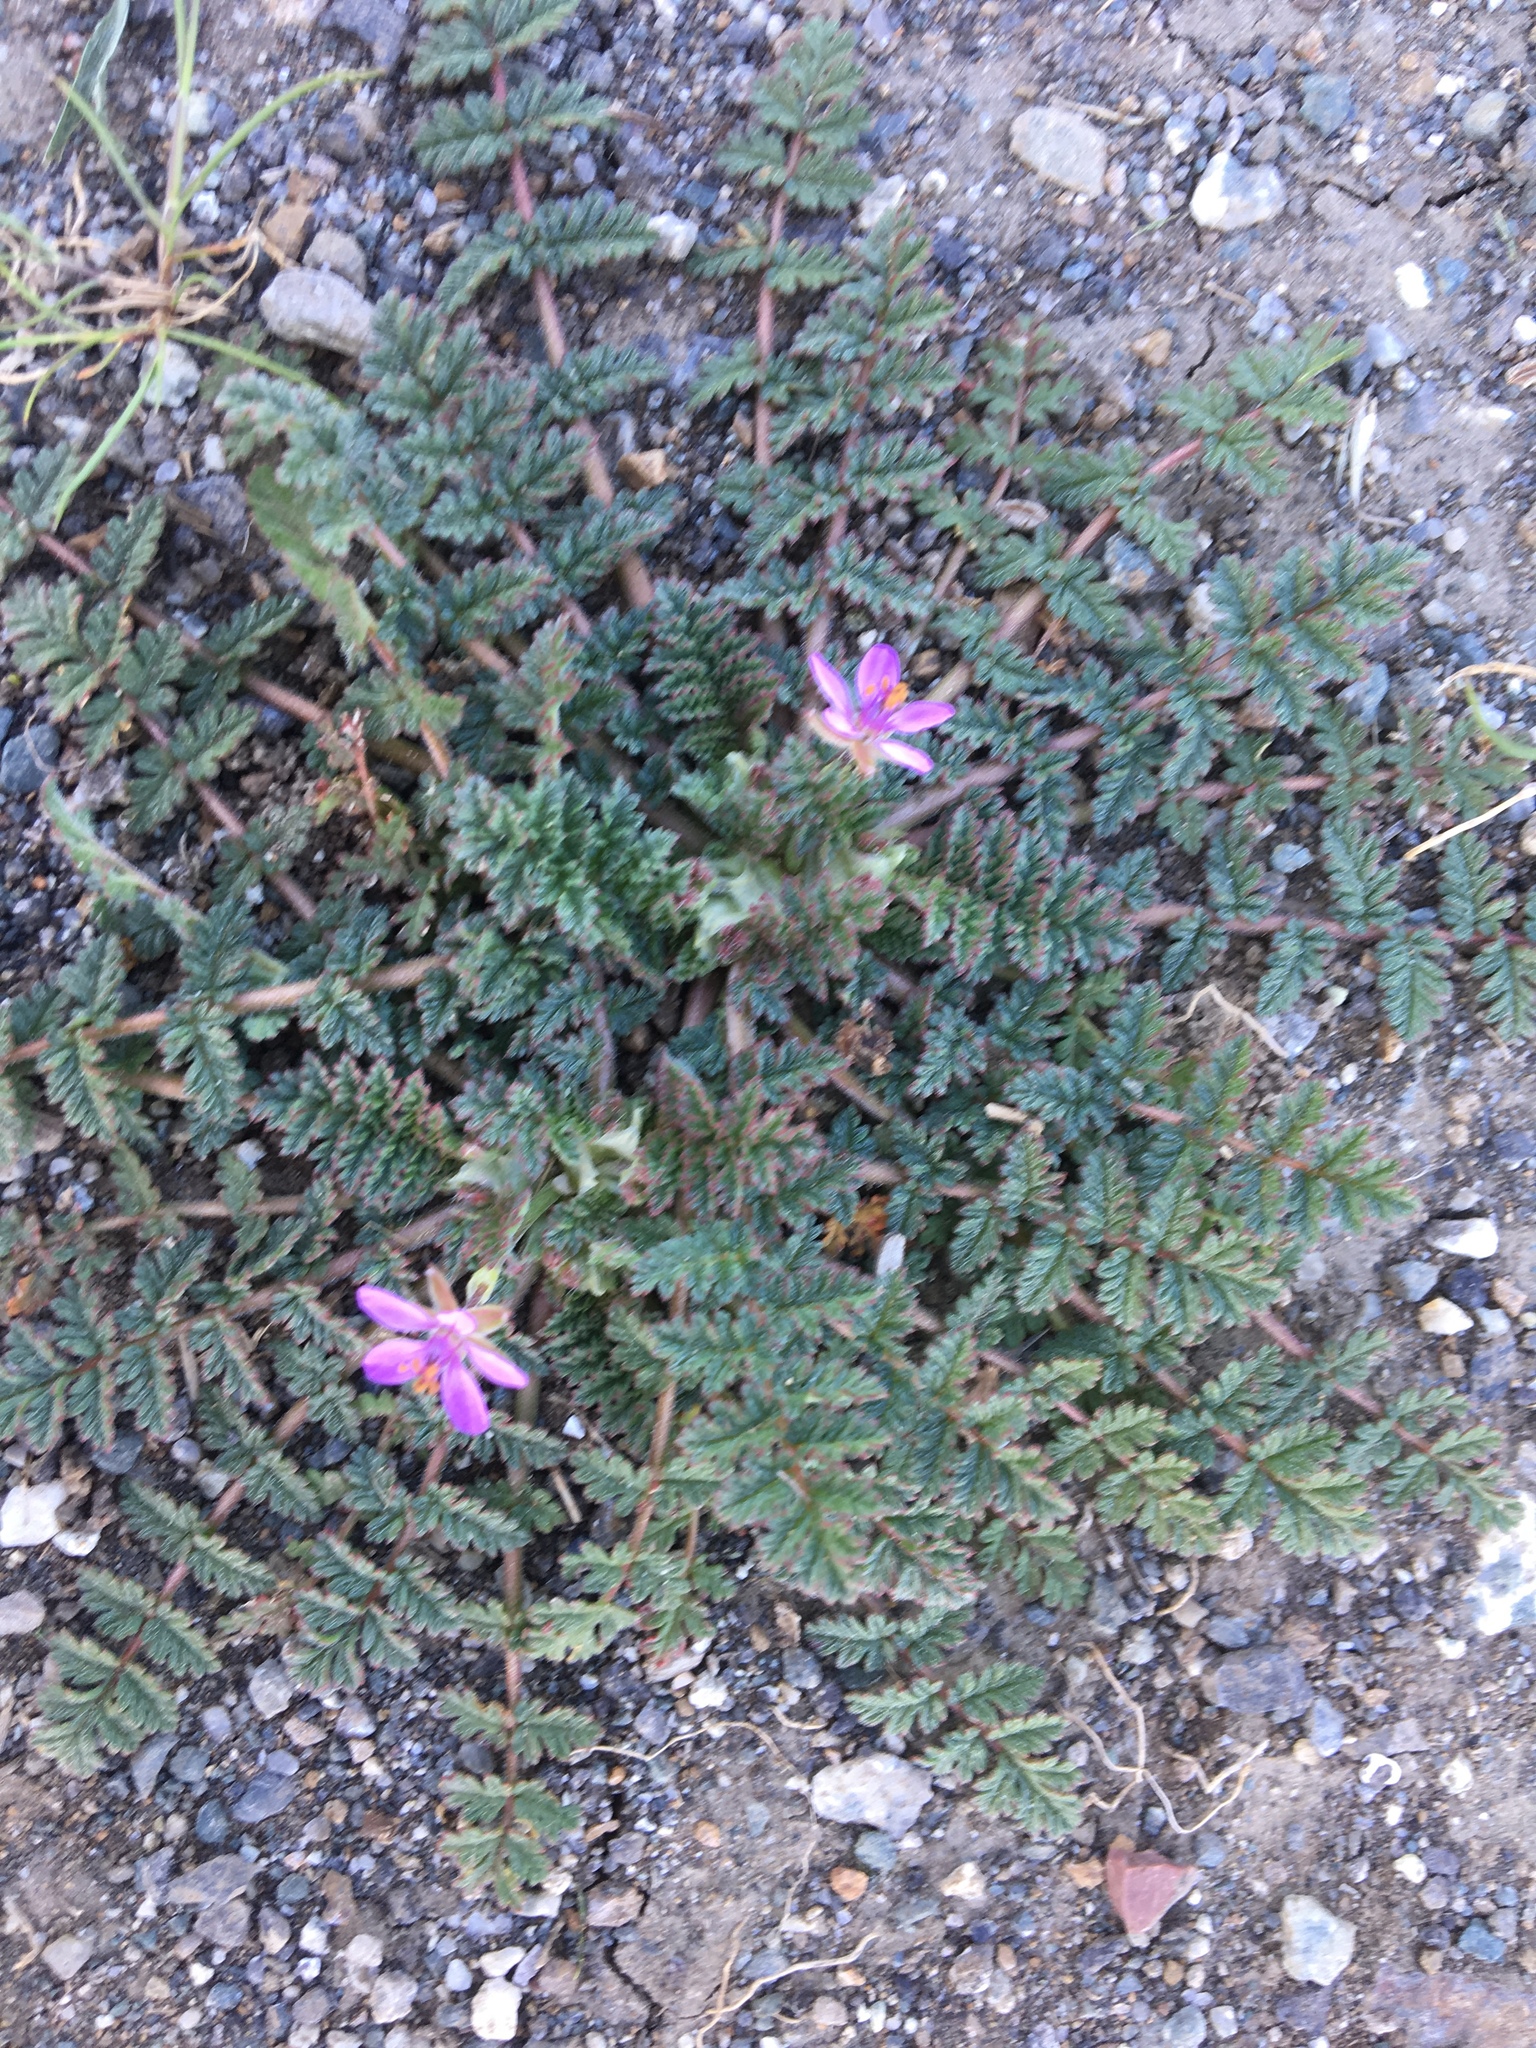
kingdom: Plantae
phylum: Tracheophyta
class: Magnoliopsida
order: Geraniales
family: Geraniaceae
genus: Erodium
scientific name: Erodium cicutarium
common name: Common stork's-bill
